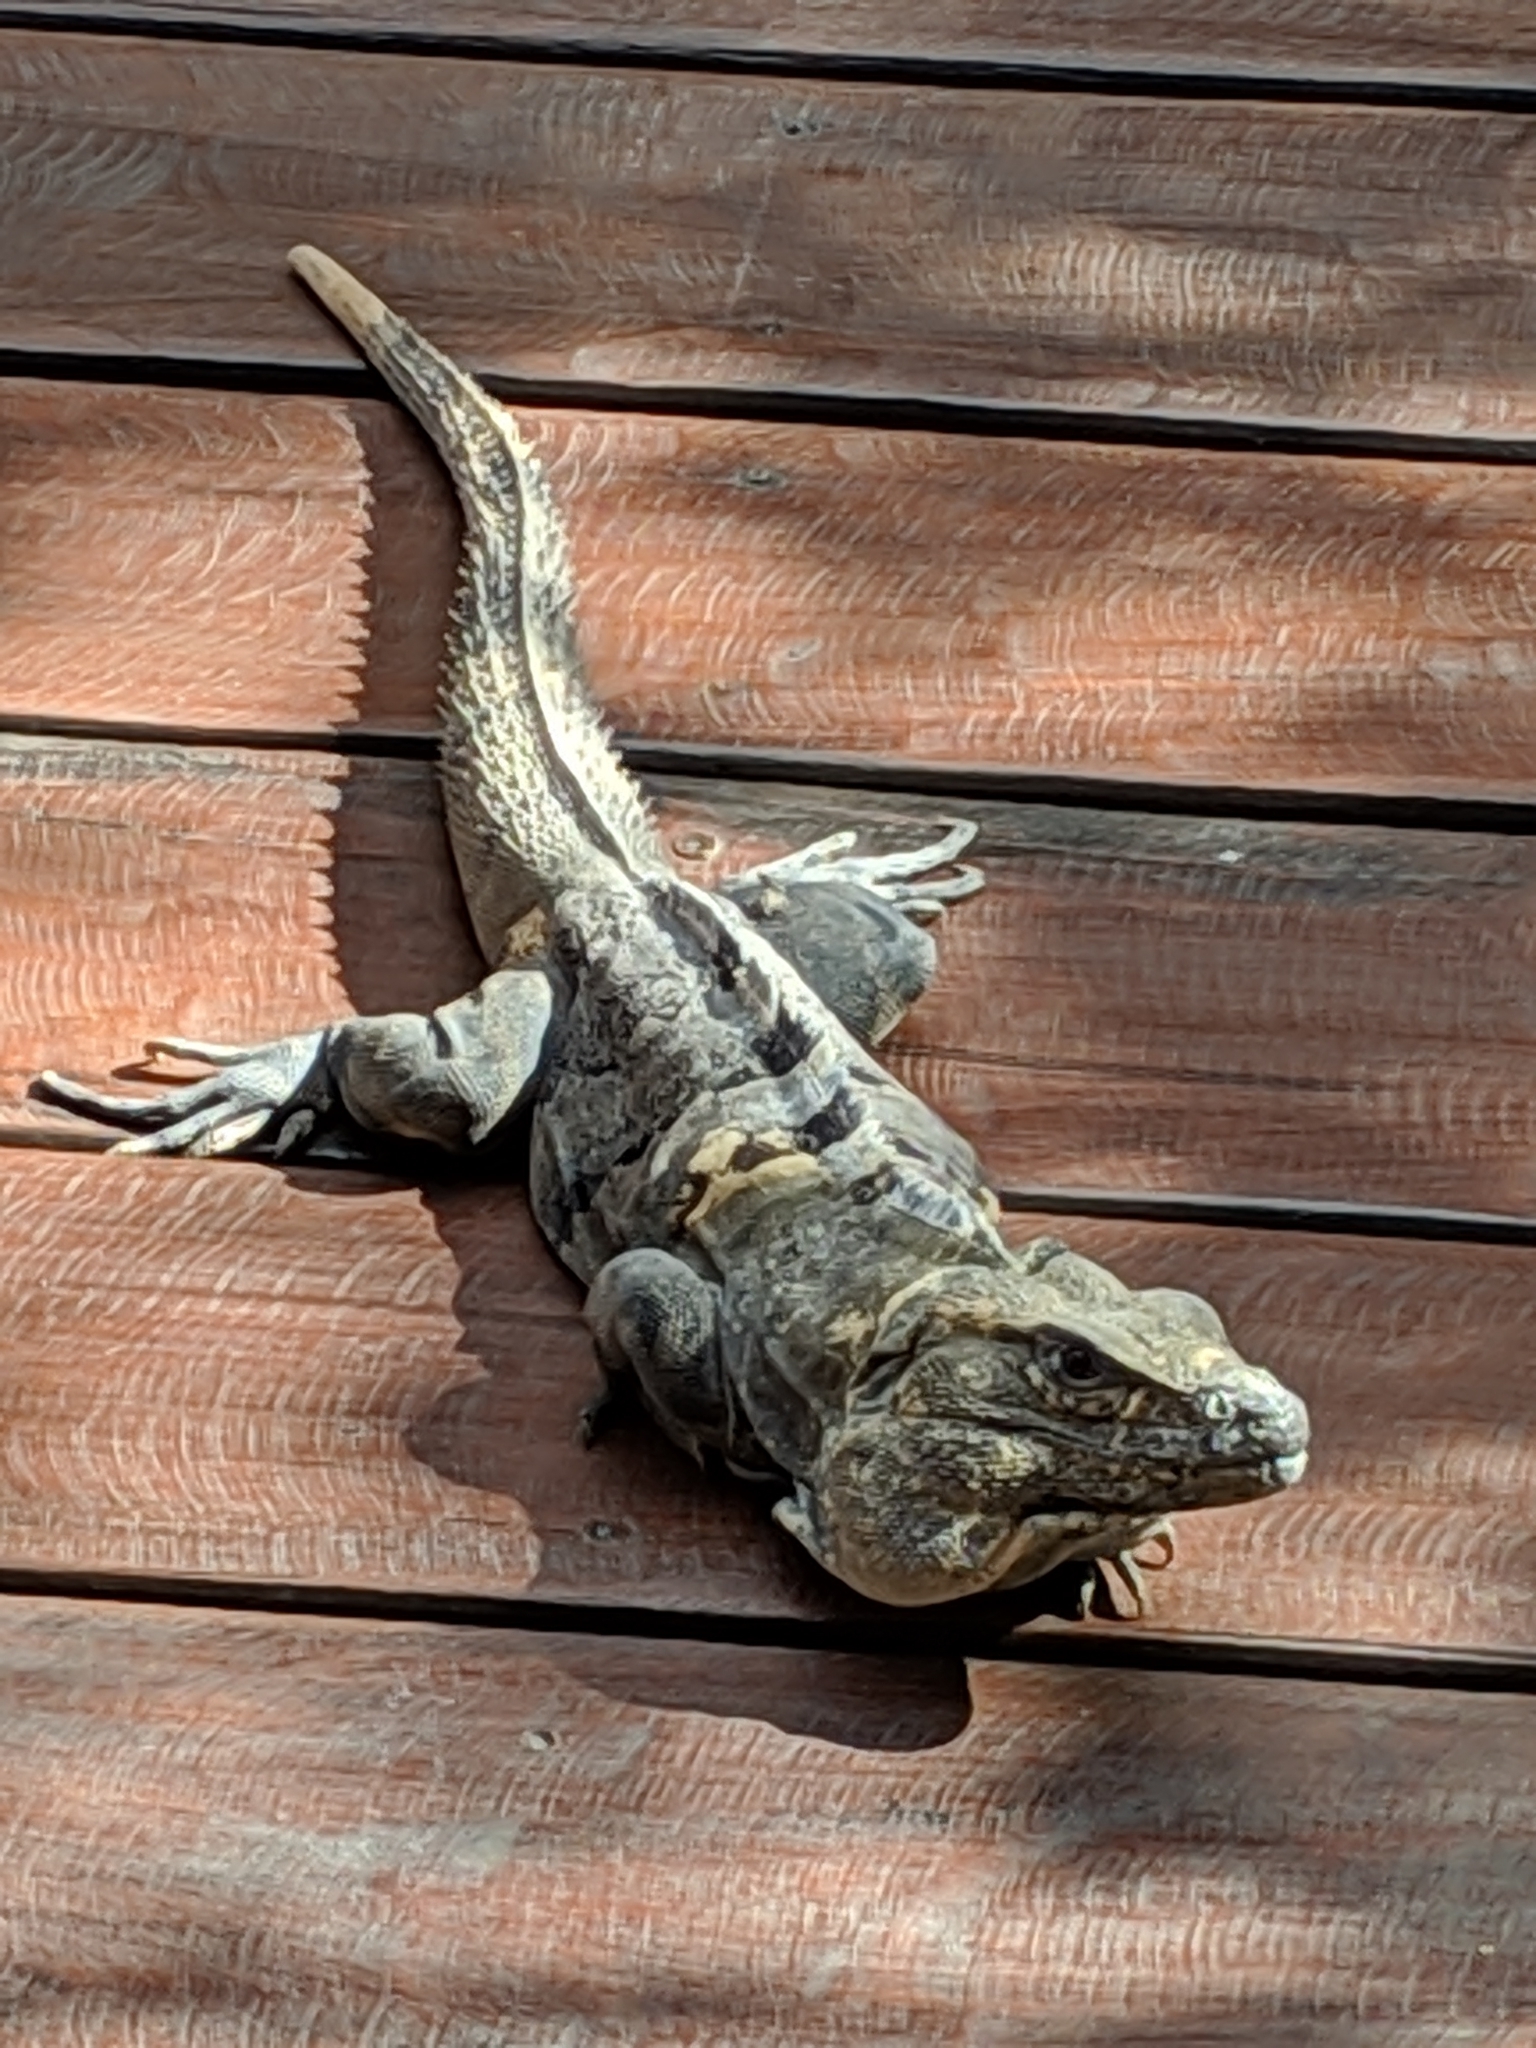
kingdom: Animalia
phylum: Chordata
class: Squamata
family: Iguanidae
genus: Ctenosaura
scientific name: Ctenosaura similis
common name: Black spiny-tailed iguana
